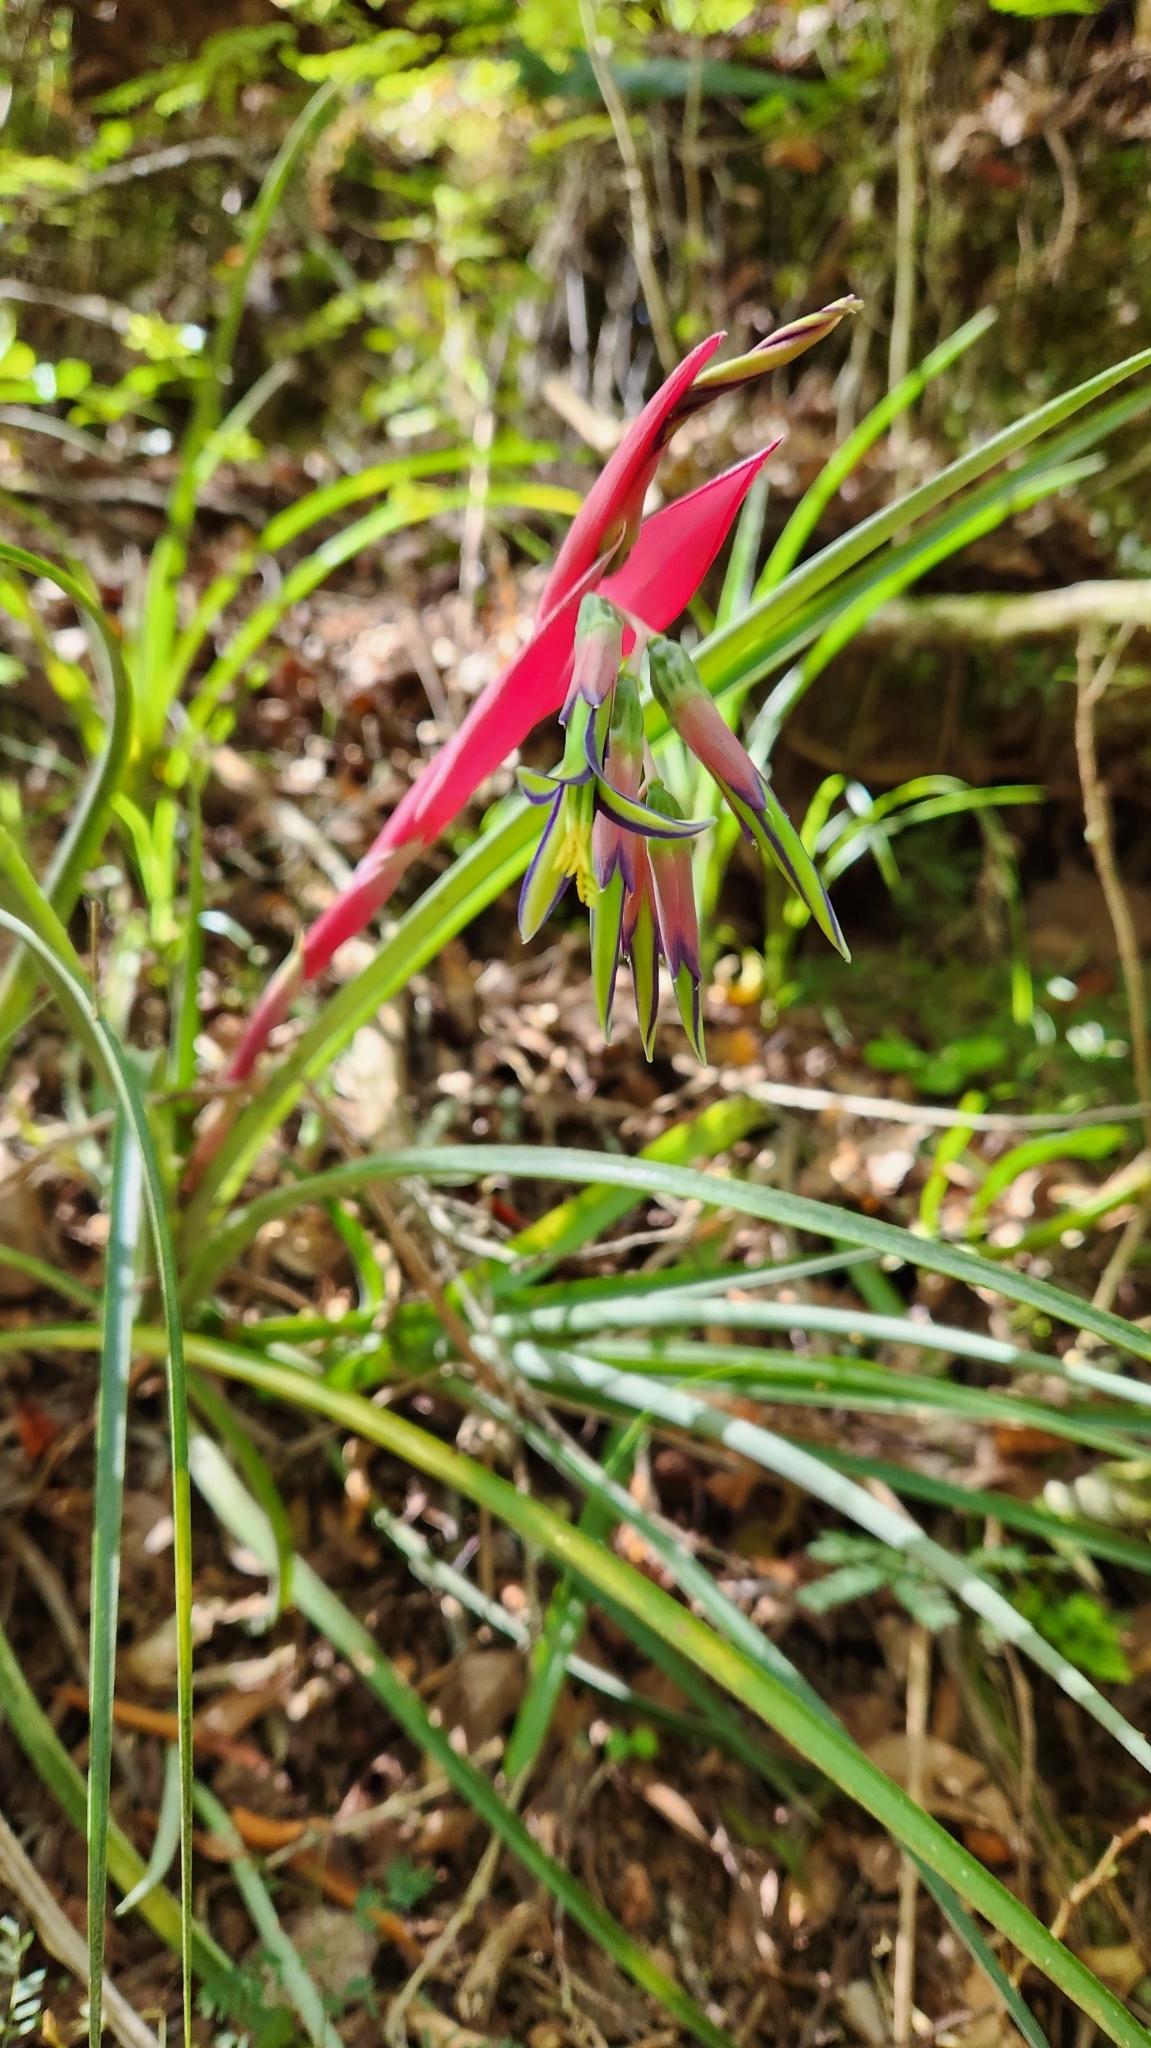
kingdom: Plantae
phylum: Tracheophyta
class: Liliopsida
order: Poales
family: Bromeliaceae
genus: Billbergia
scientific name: Billbergia nutans
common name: Friendship-plant
